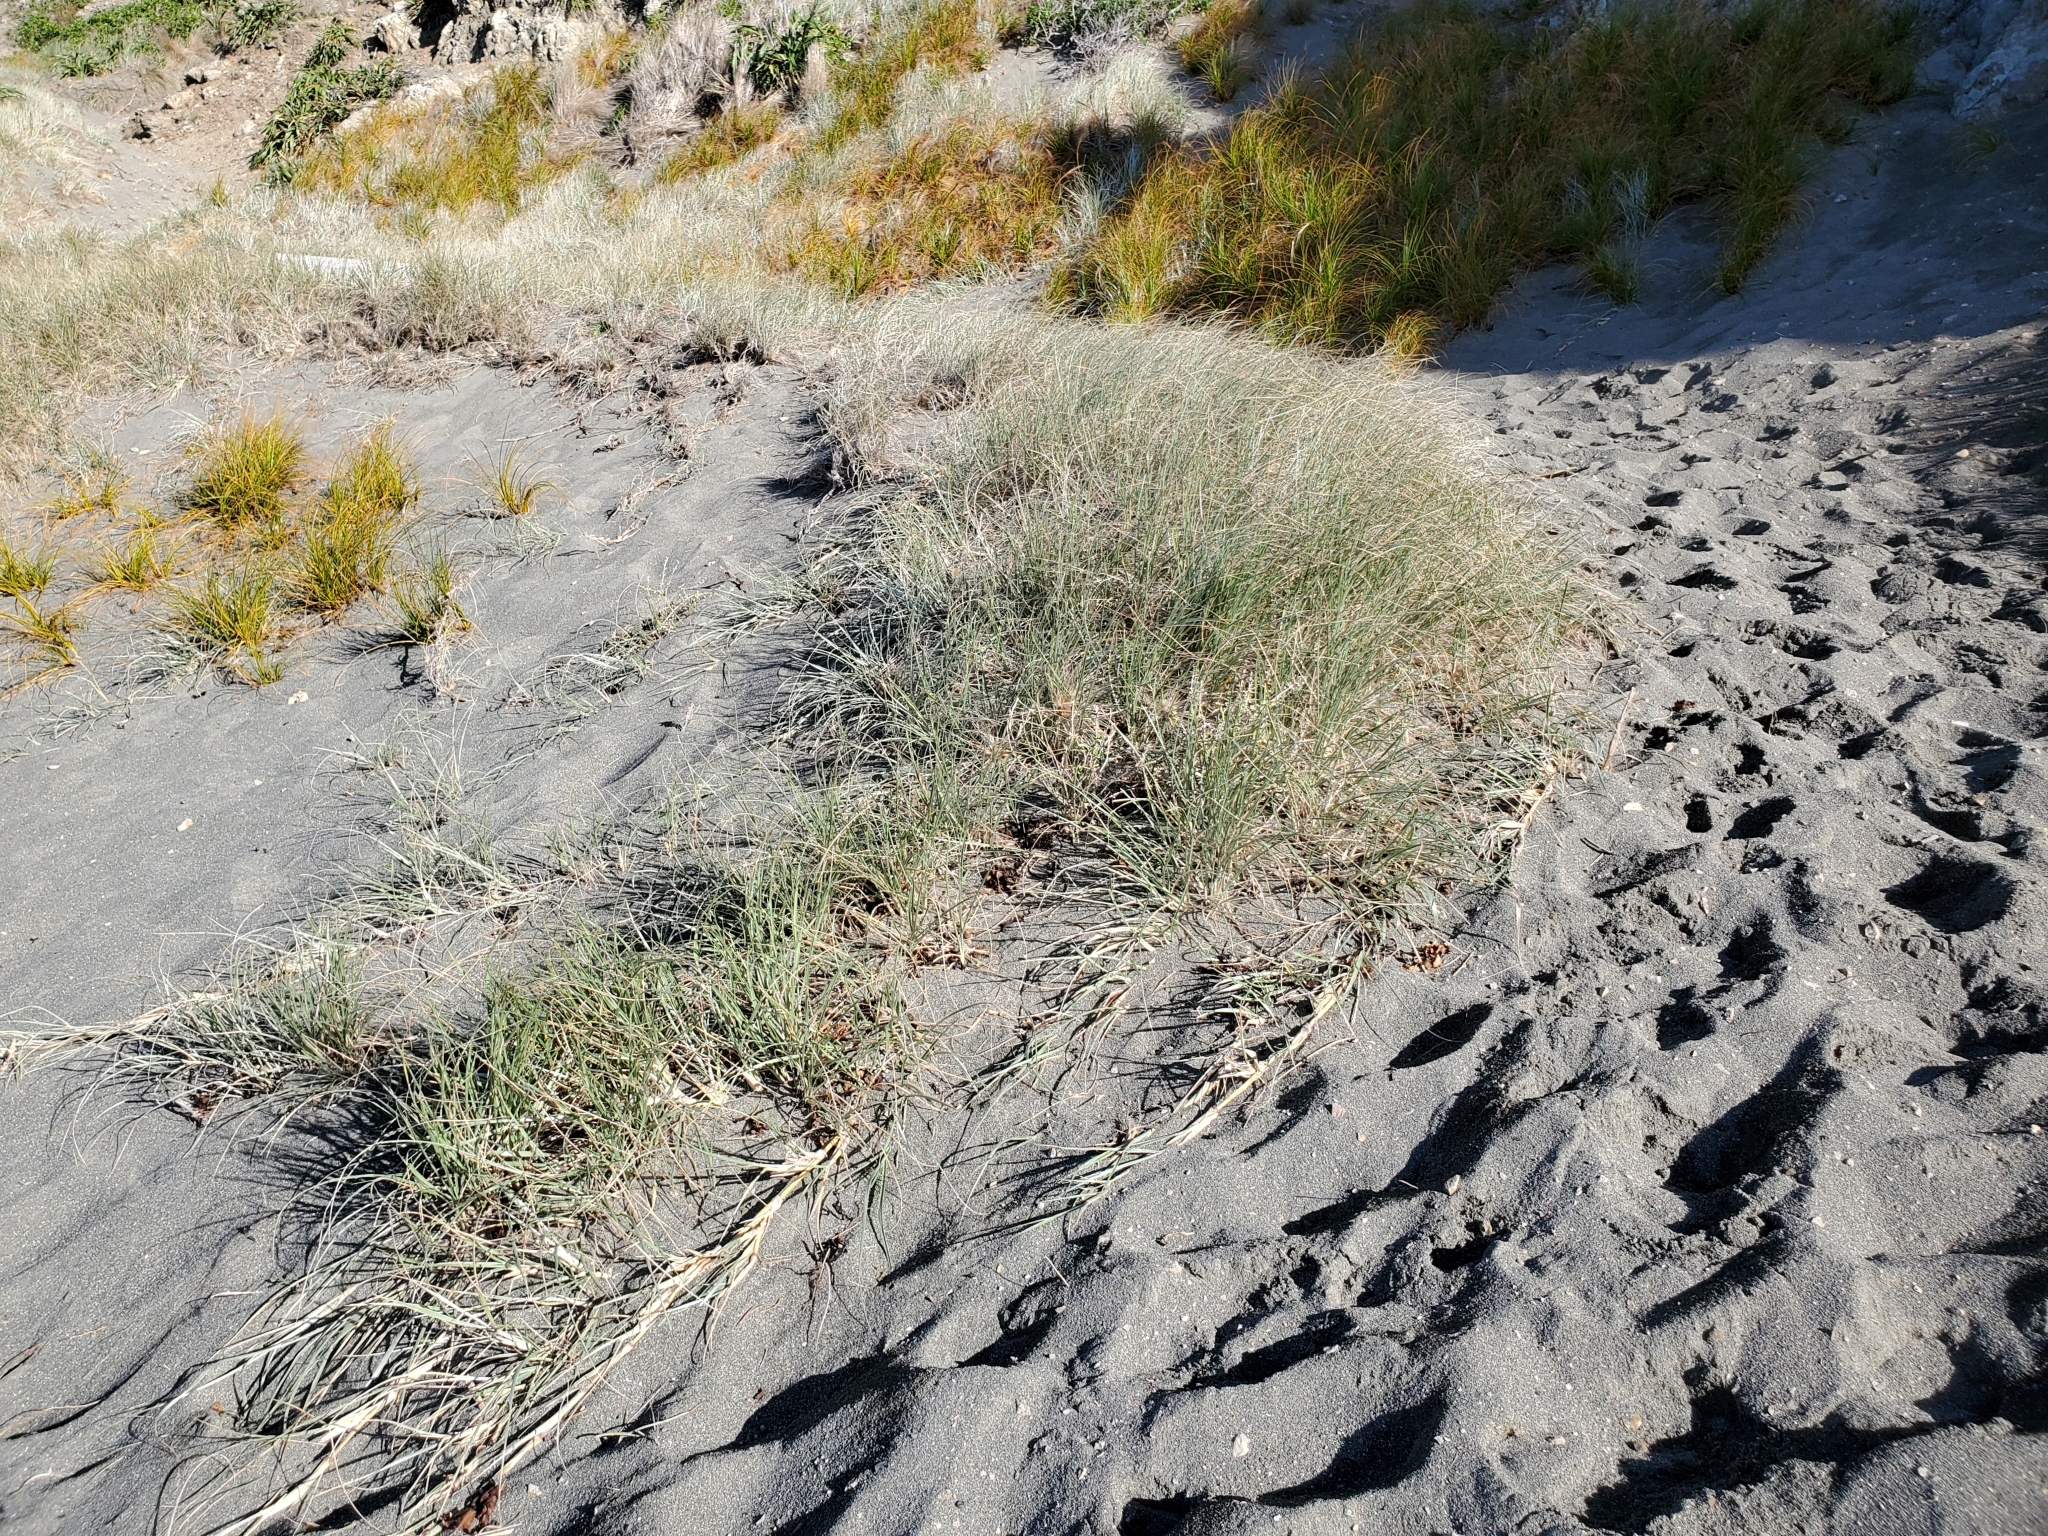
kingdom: Plantae
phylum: Tracheophyta
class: Liliopsida
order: Poales
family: Poaceae
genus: Spinifex
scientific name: Spinifex sericeus
